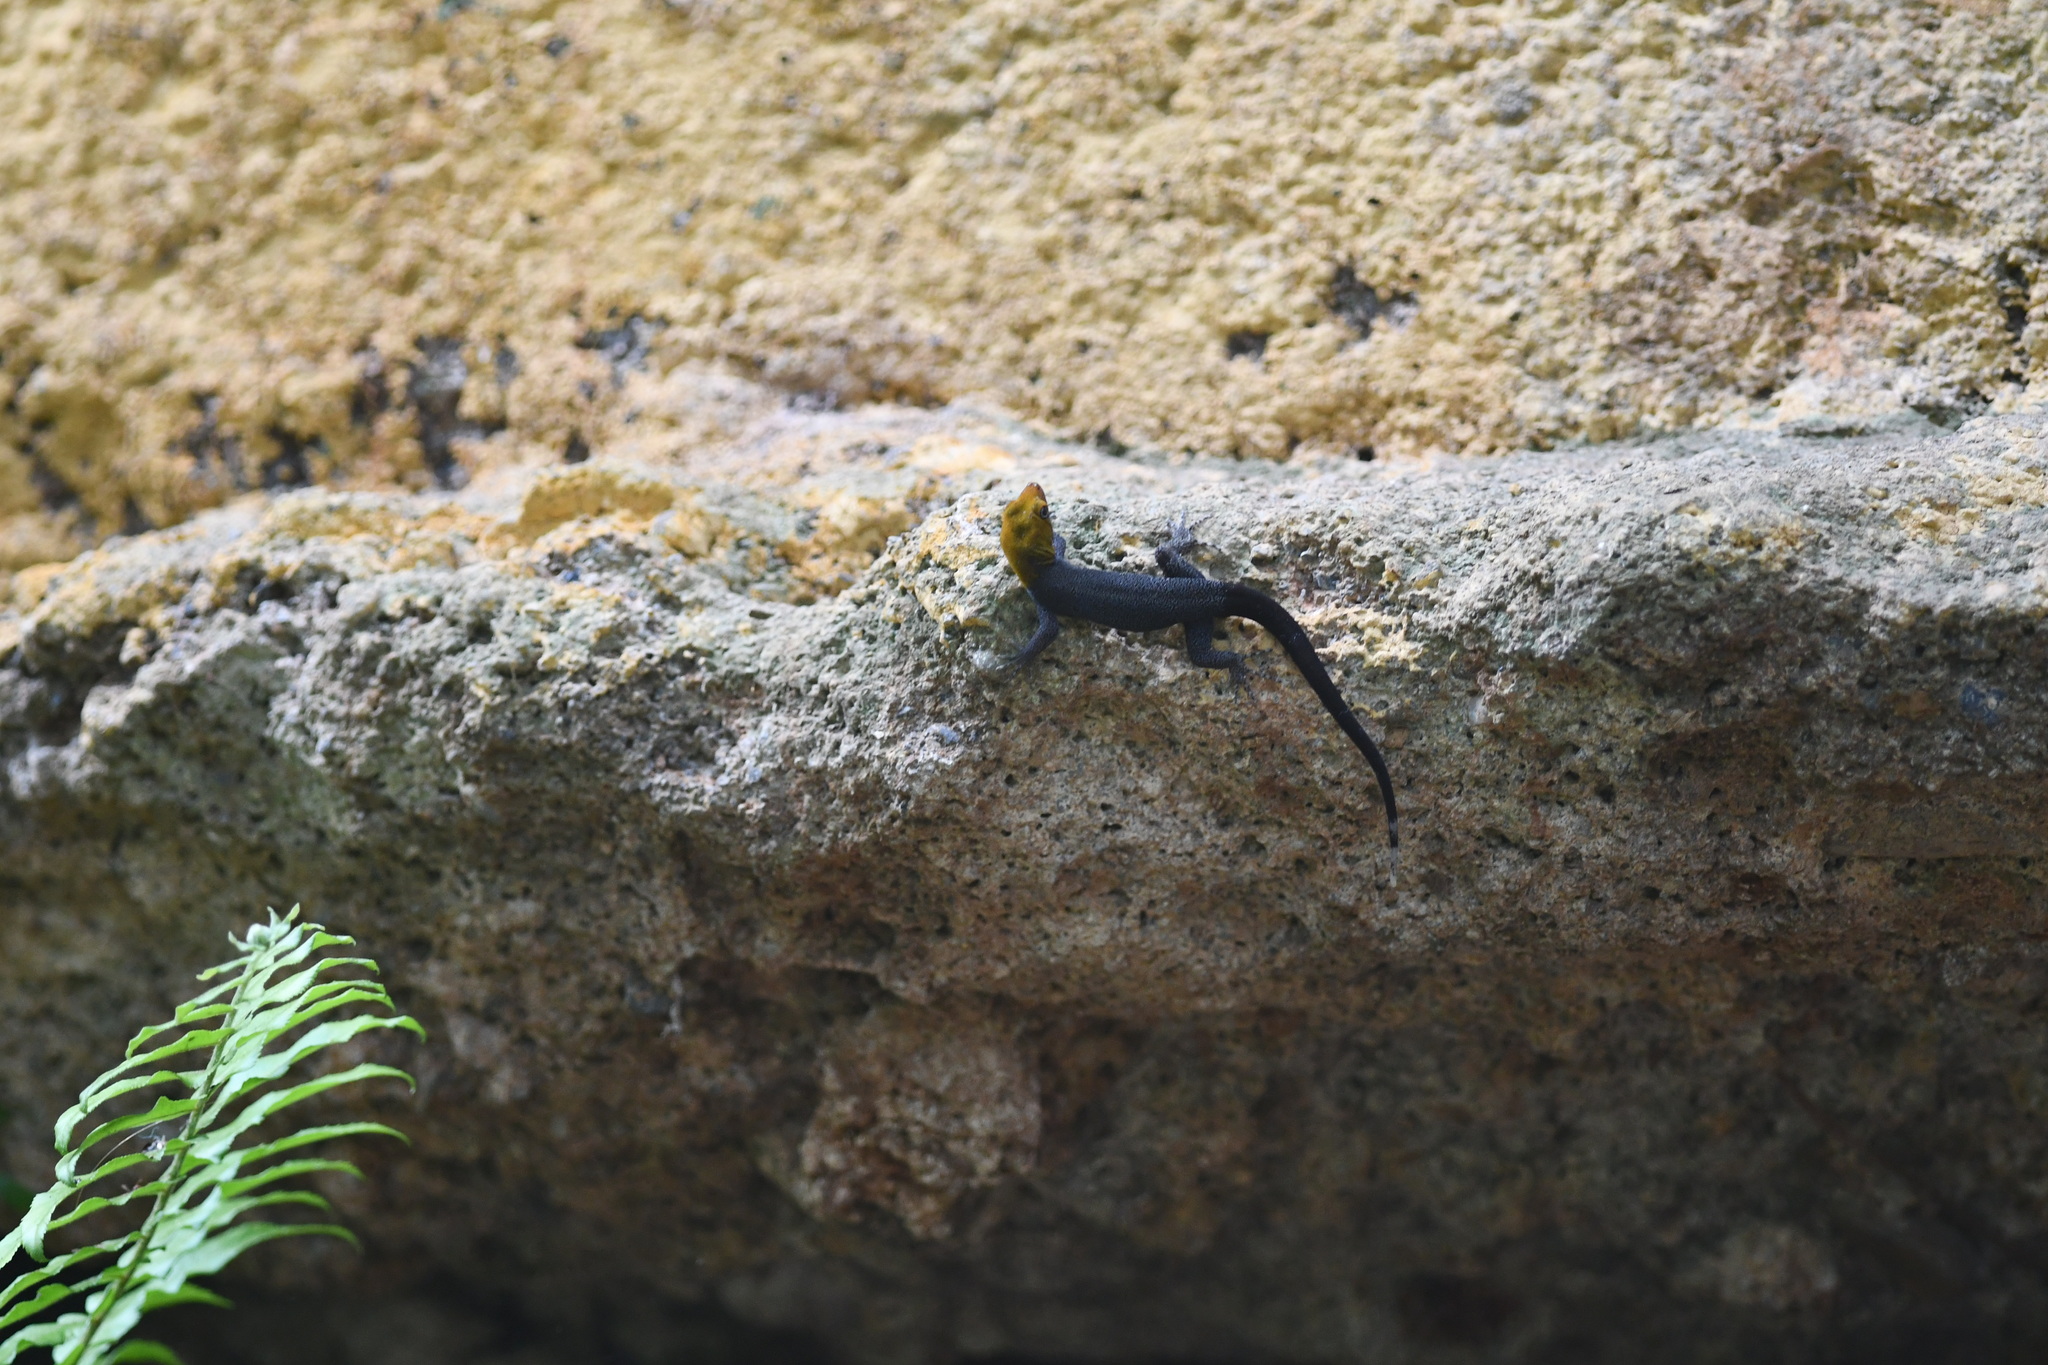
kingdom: Animalia
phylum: Chordata
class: Squamata
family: Sphaerodactylidae
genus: Gonatodes
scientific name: Gonatodes albogularis
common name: Yellow-headed gecko
